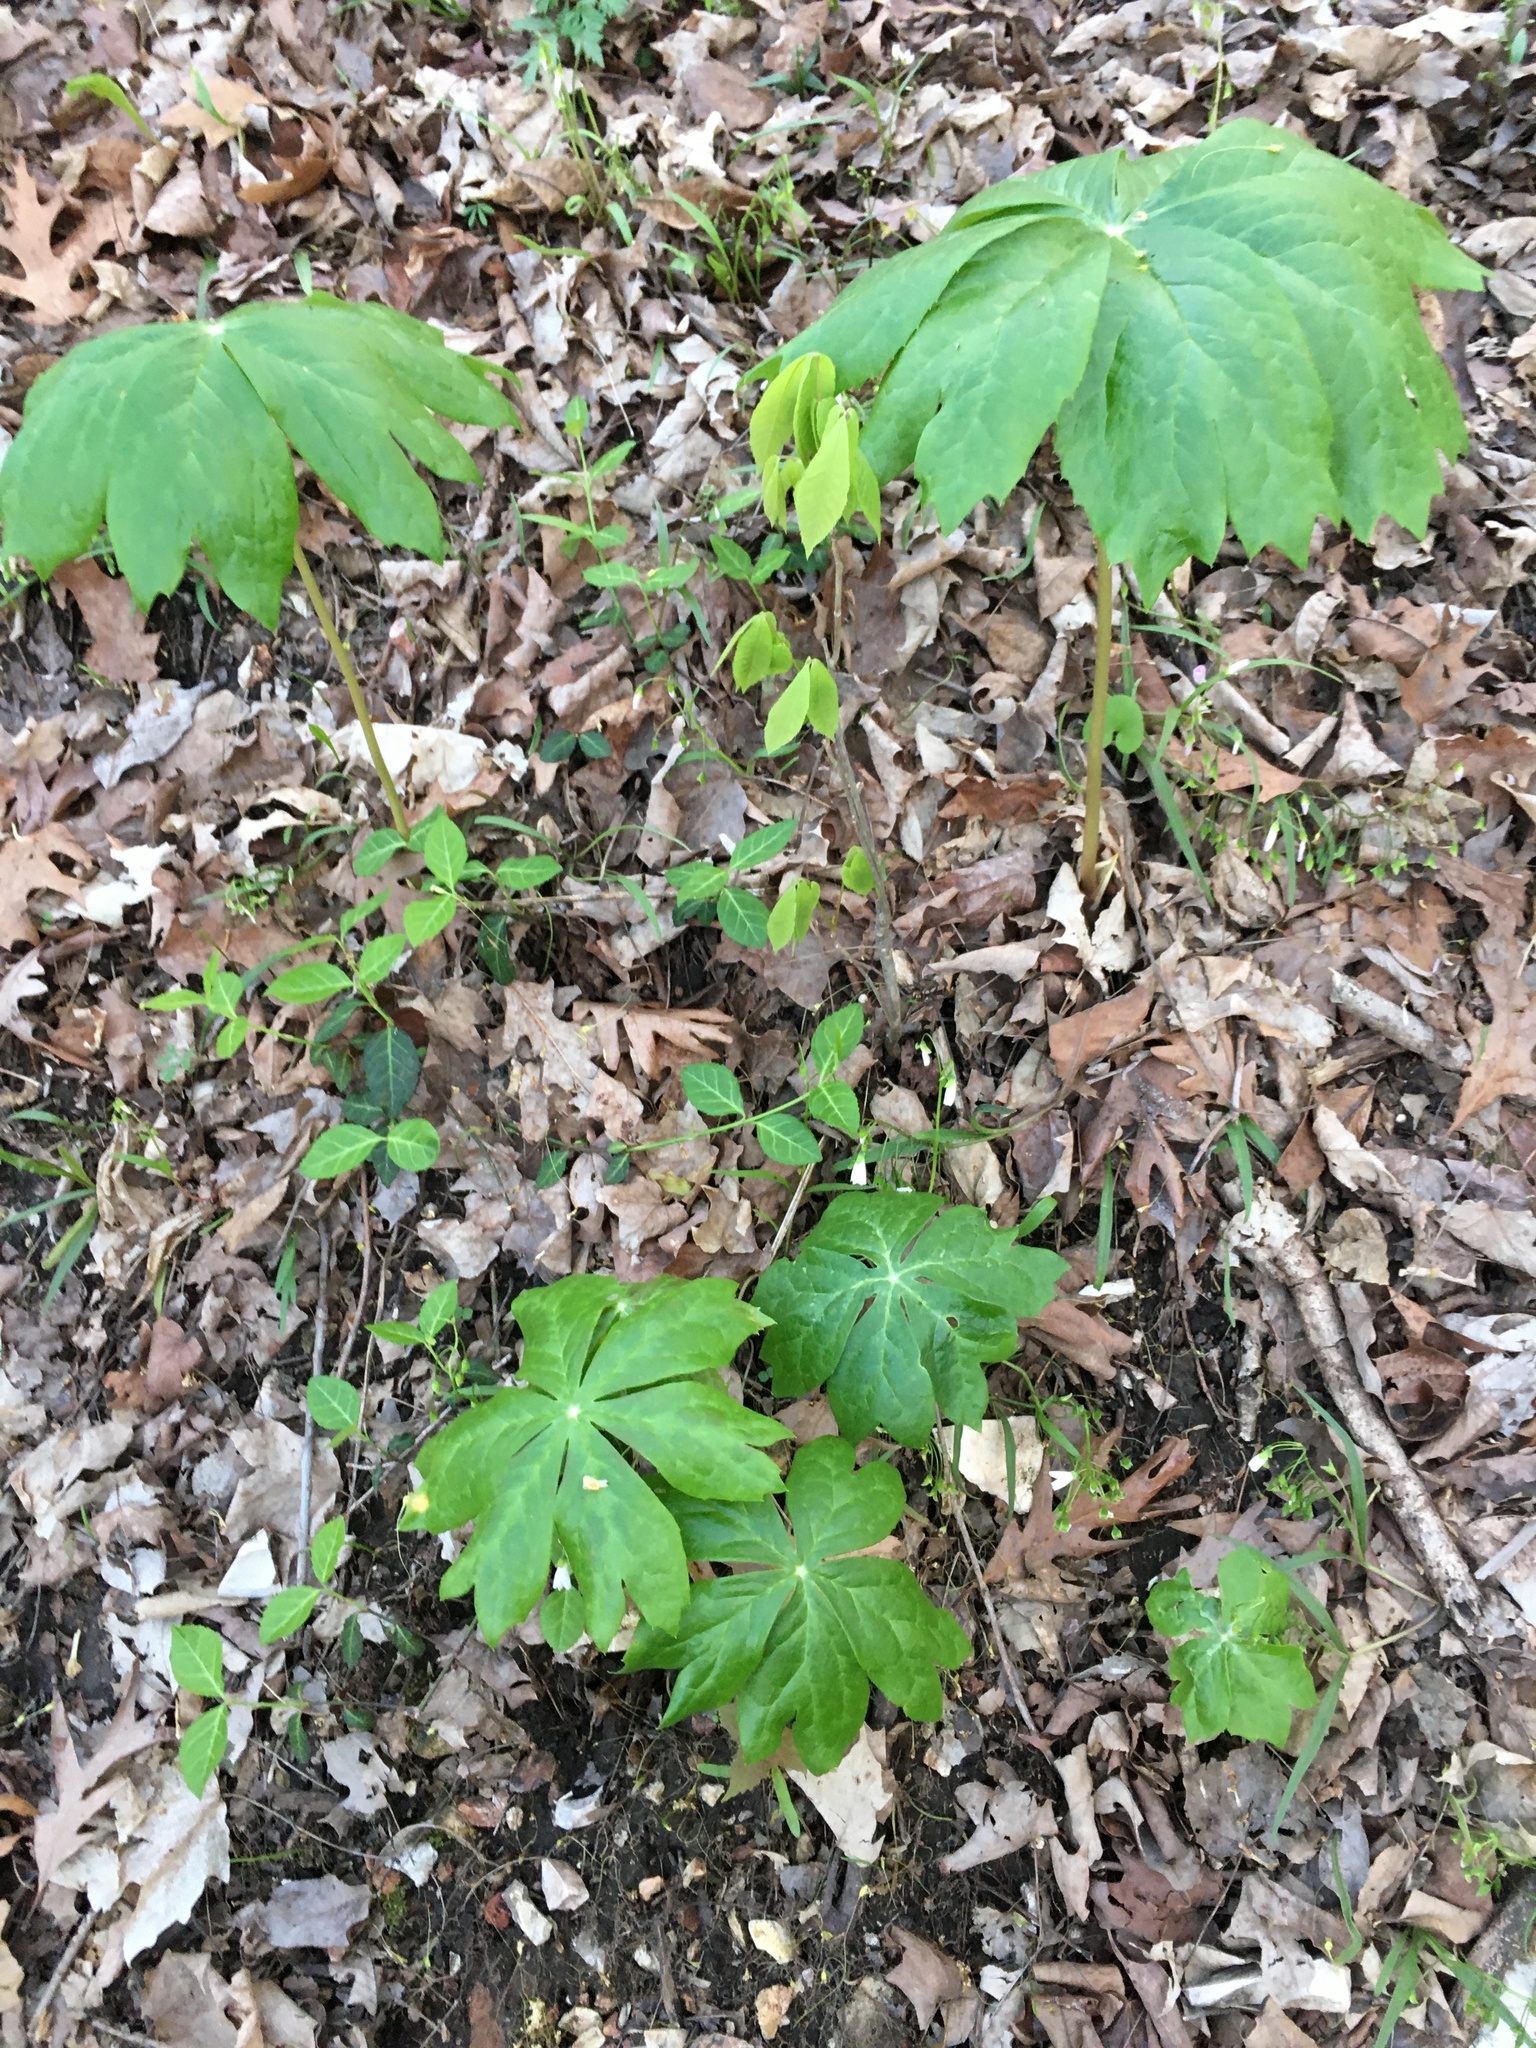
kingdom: Plantae
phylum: Tracheophyta
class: Magnoliopsida
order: Ranunculales
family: Berberidaceae
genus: Podophyllum
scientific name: Podophyllum peltatum
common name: Wild mandrake
